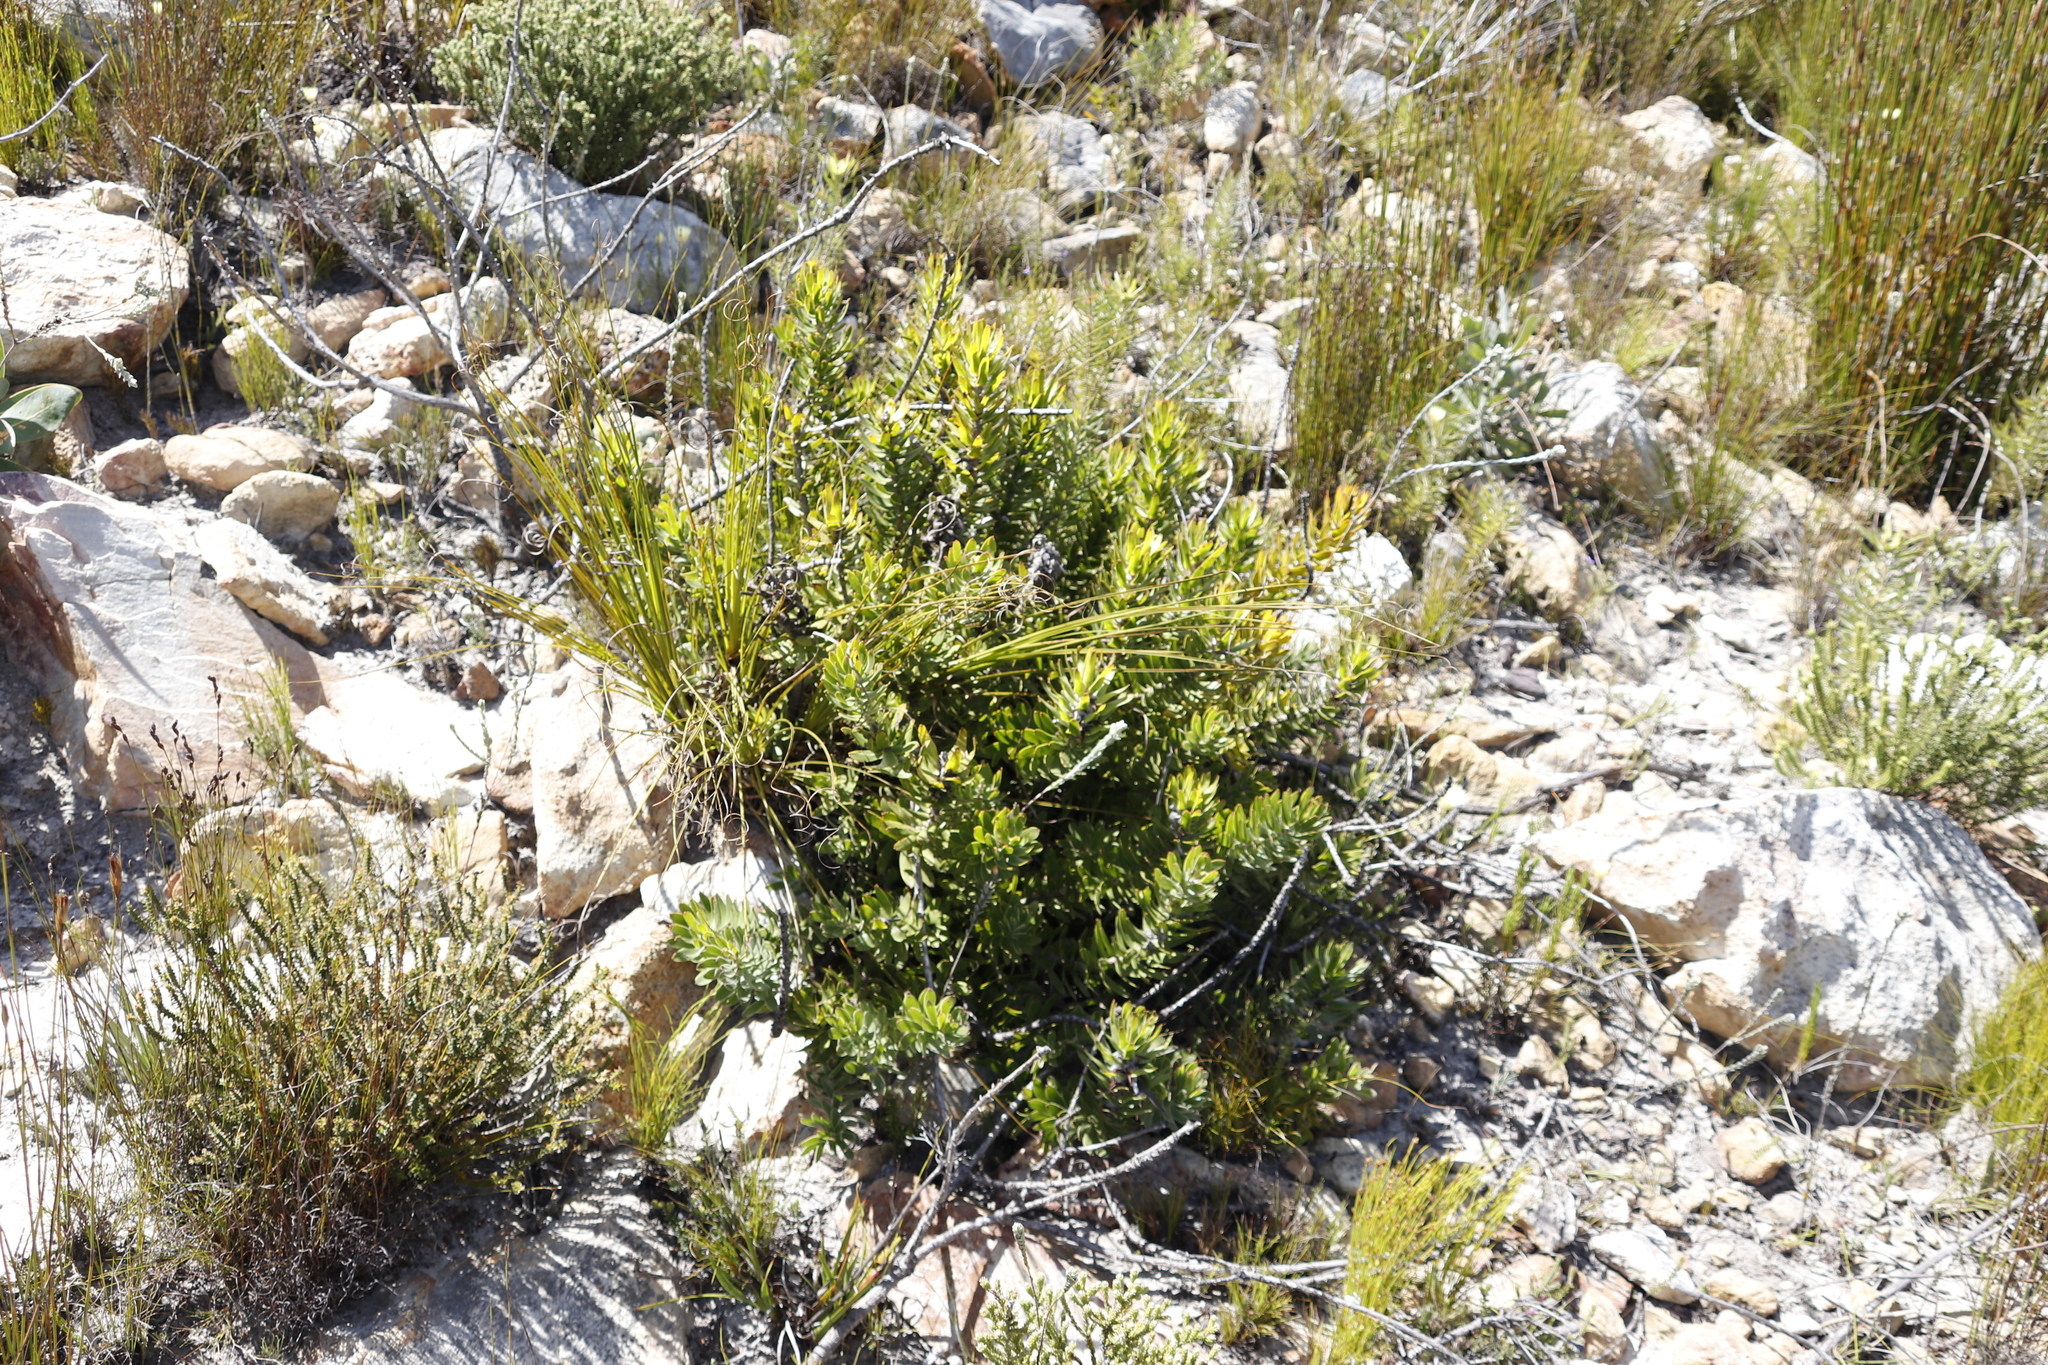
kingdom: Plantae
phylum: Tracheophyta
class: Magnoliopsida
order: Proteales
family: Proteaceae
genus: Mimetes
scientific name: Mimetes cucullatus
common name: Common pagoda
